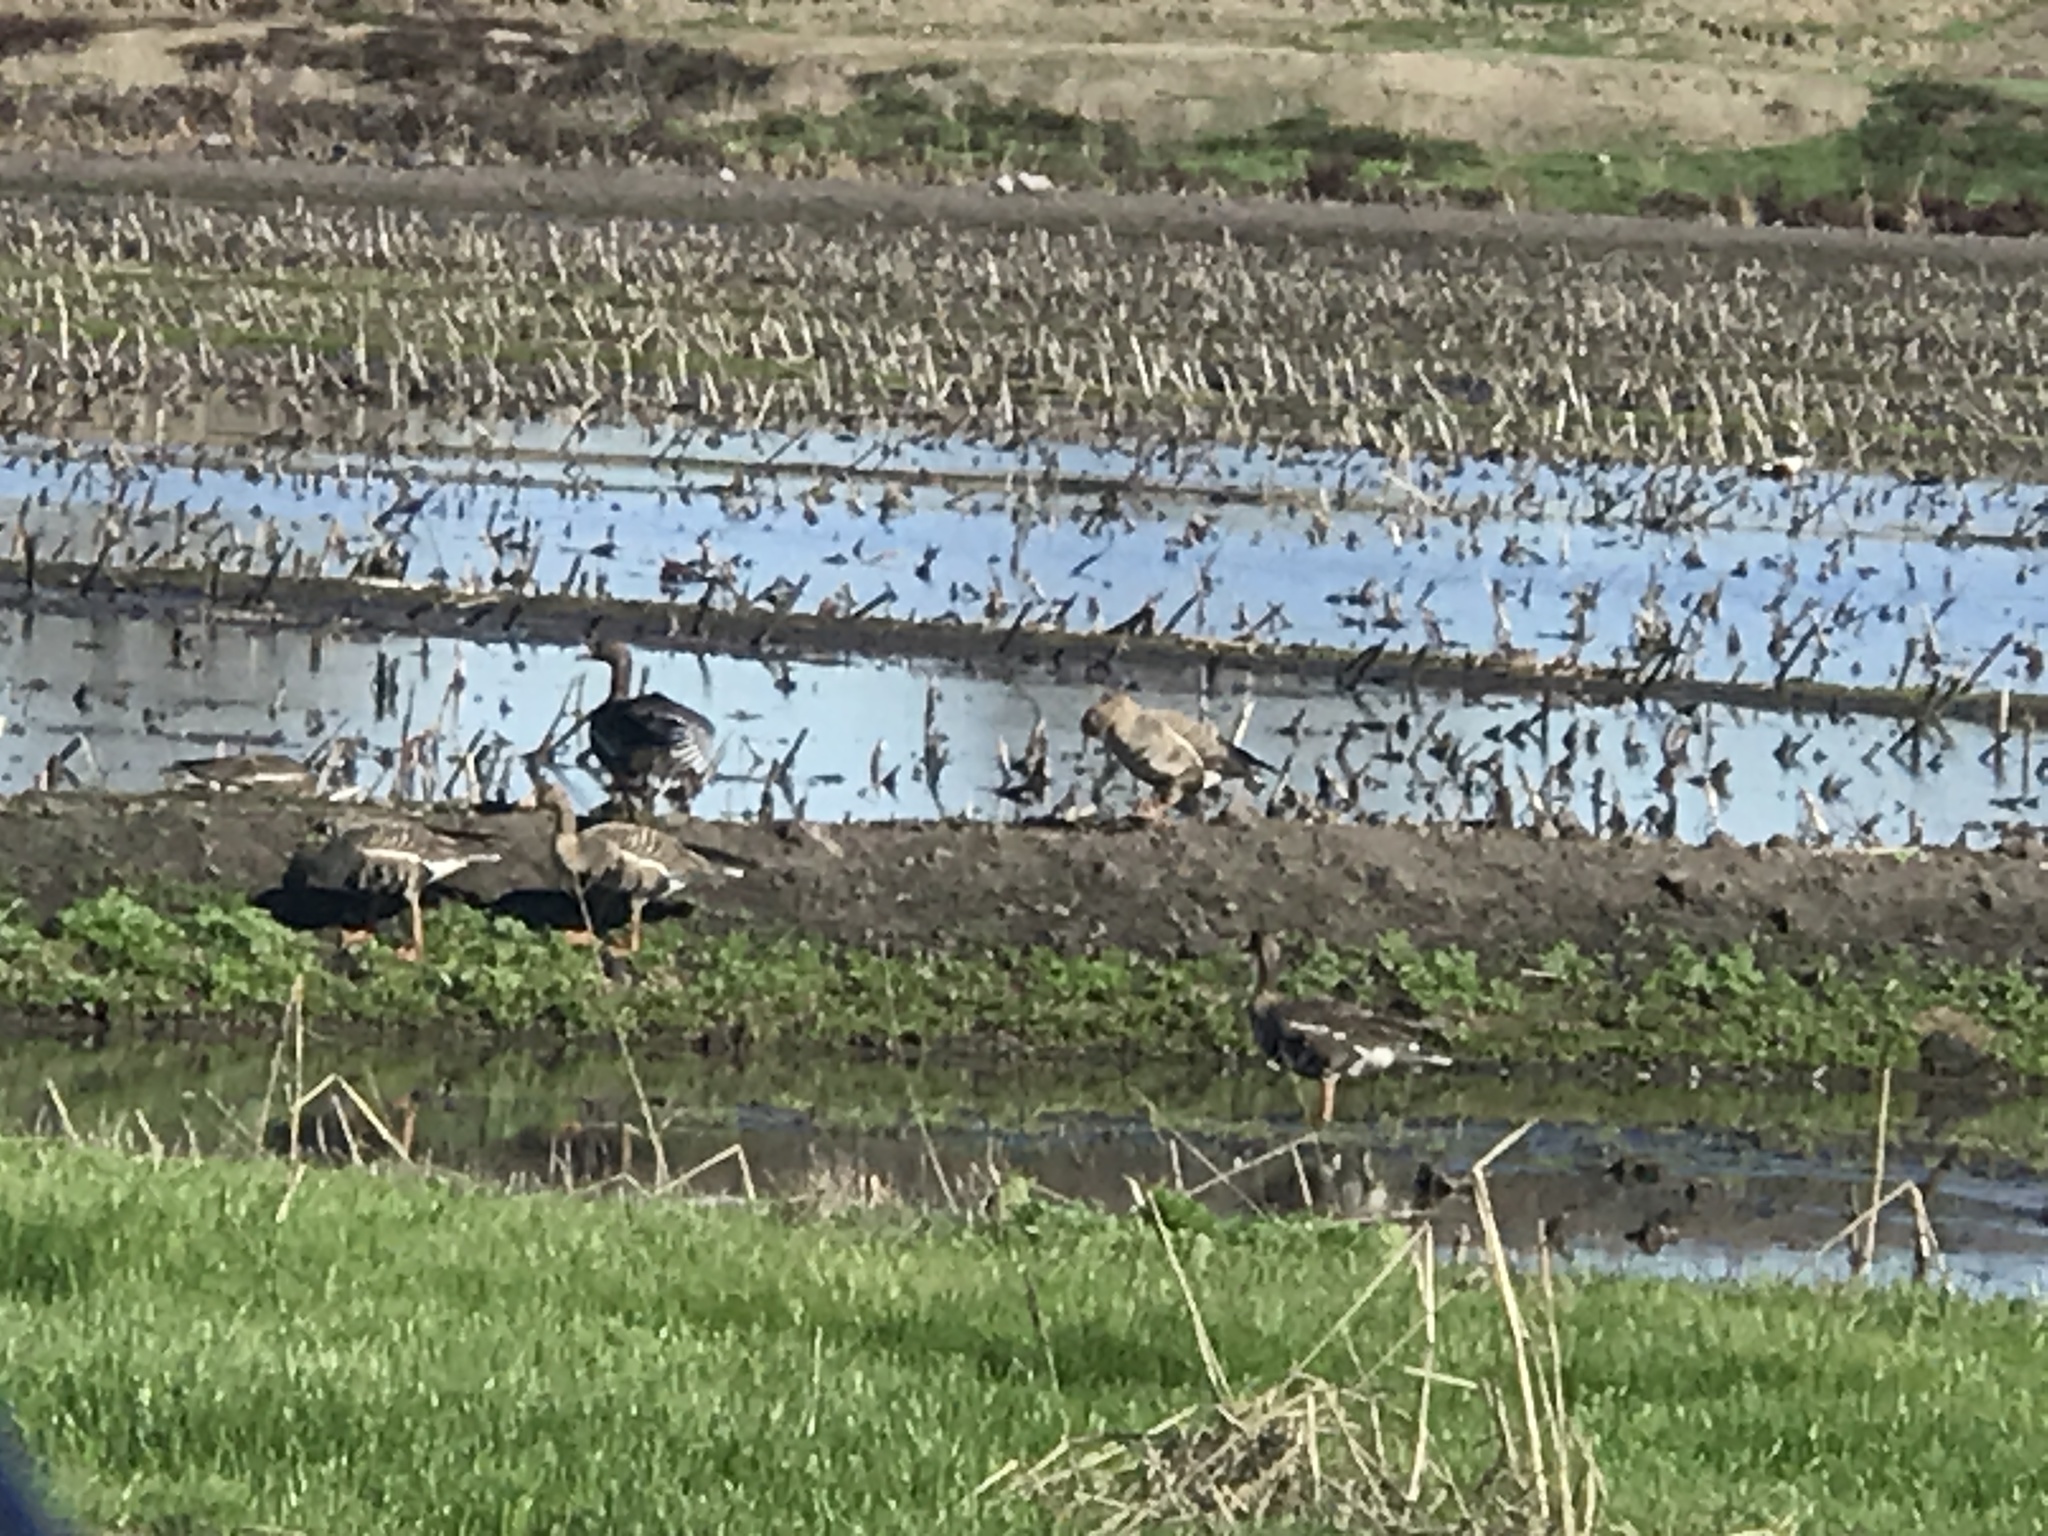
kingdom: Animalia
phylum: Chordata
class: Aves
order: Anseriformes
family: Anatidae
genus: Anser
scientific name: Anser albifrons
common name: Greater white-fronted goose
